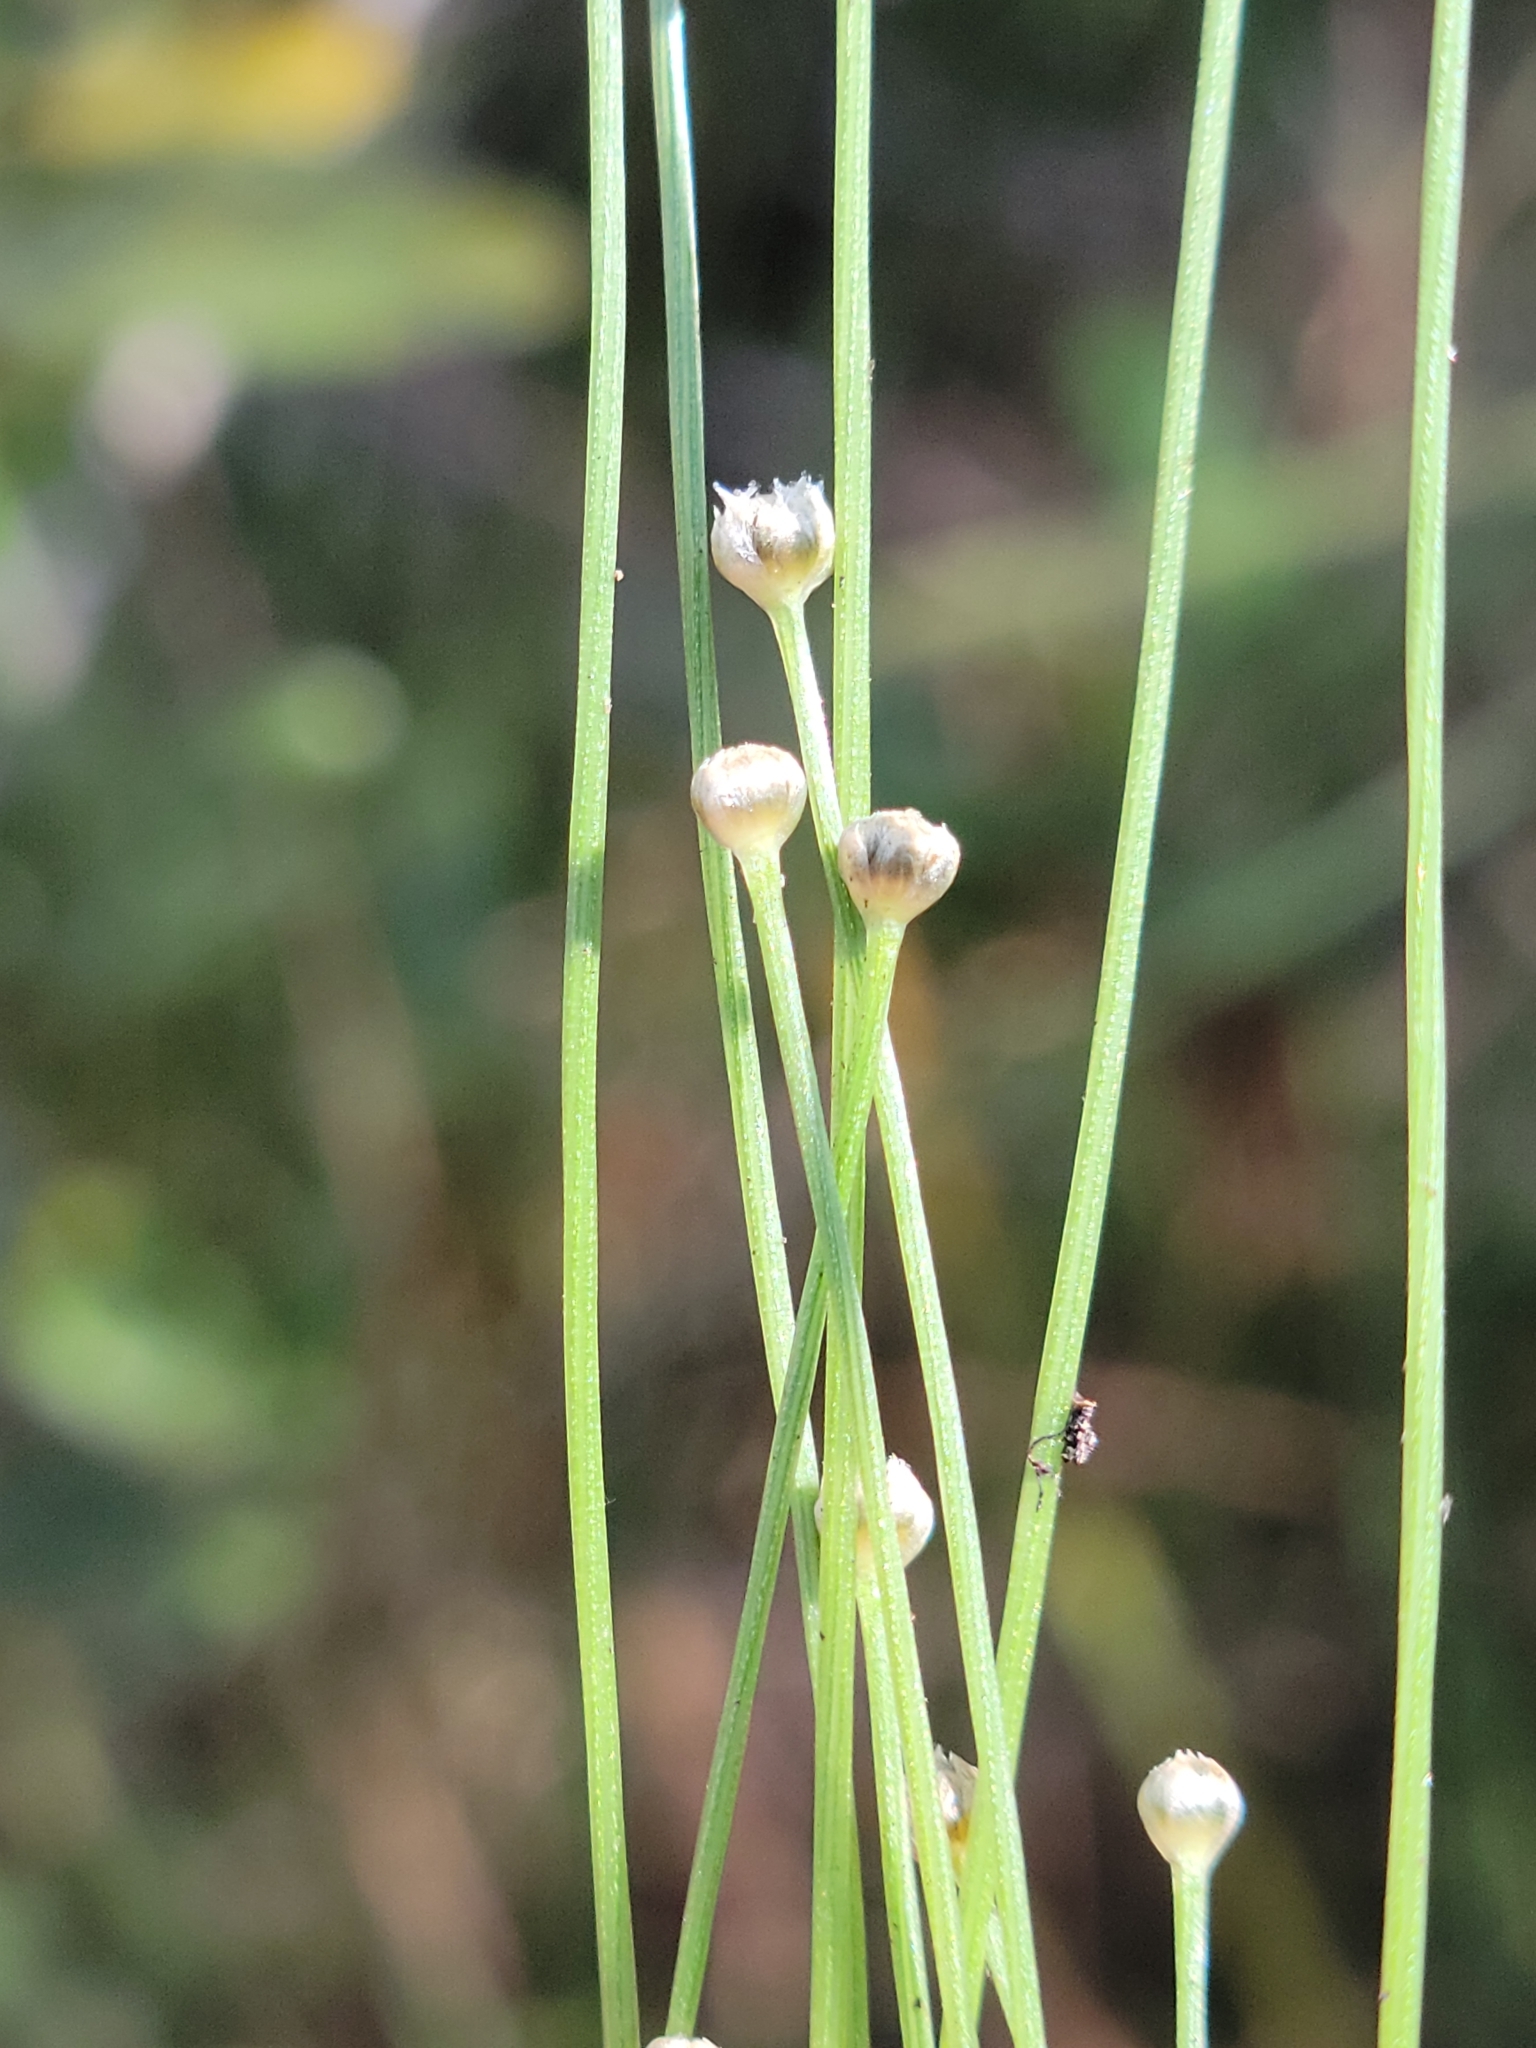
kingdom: Plantae
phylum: Tracheophyta
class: Liliopsida
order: Poales
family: Eriocaulaceae
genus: Eriocaulon
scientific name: Eriocaulon ravenelii
